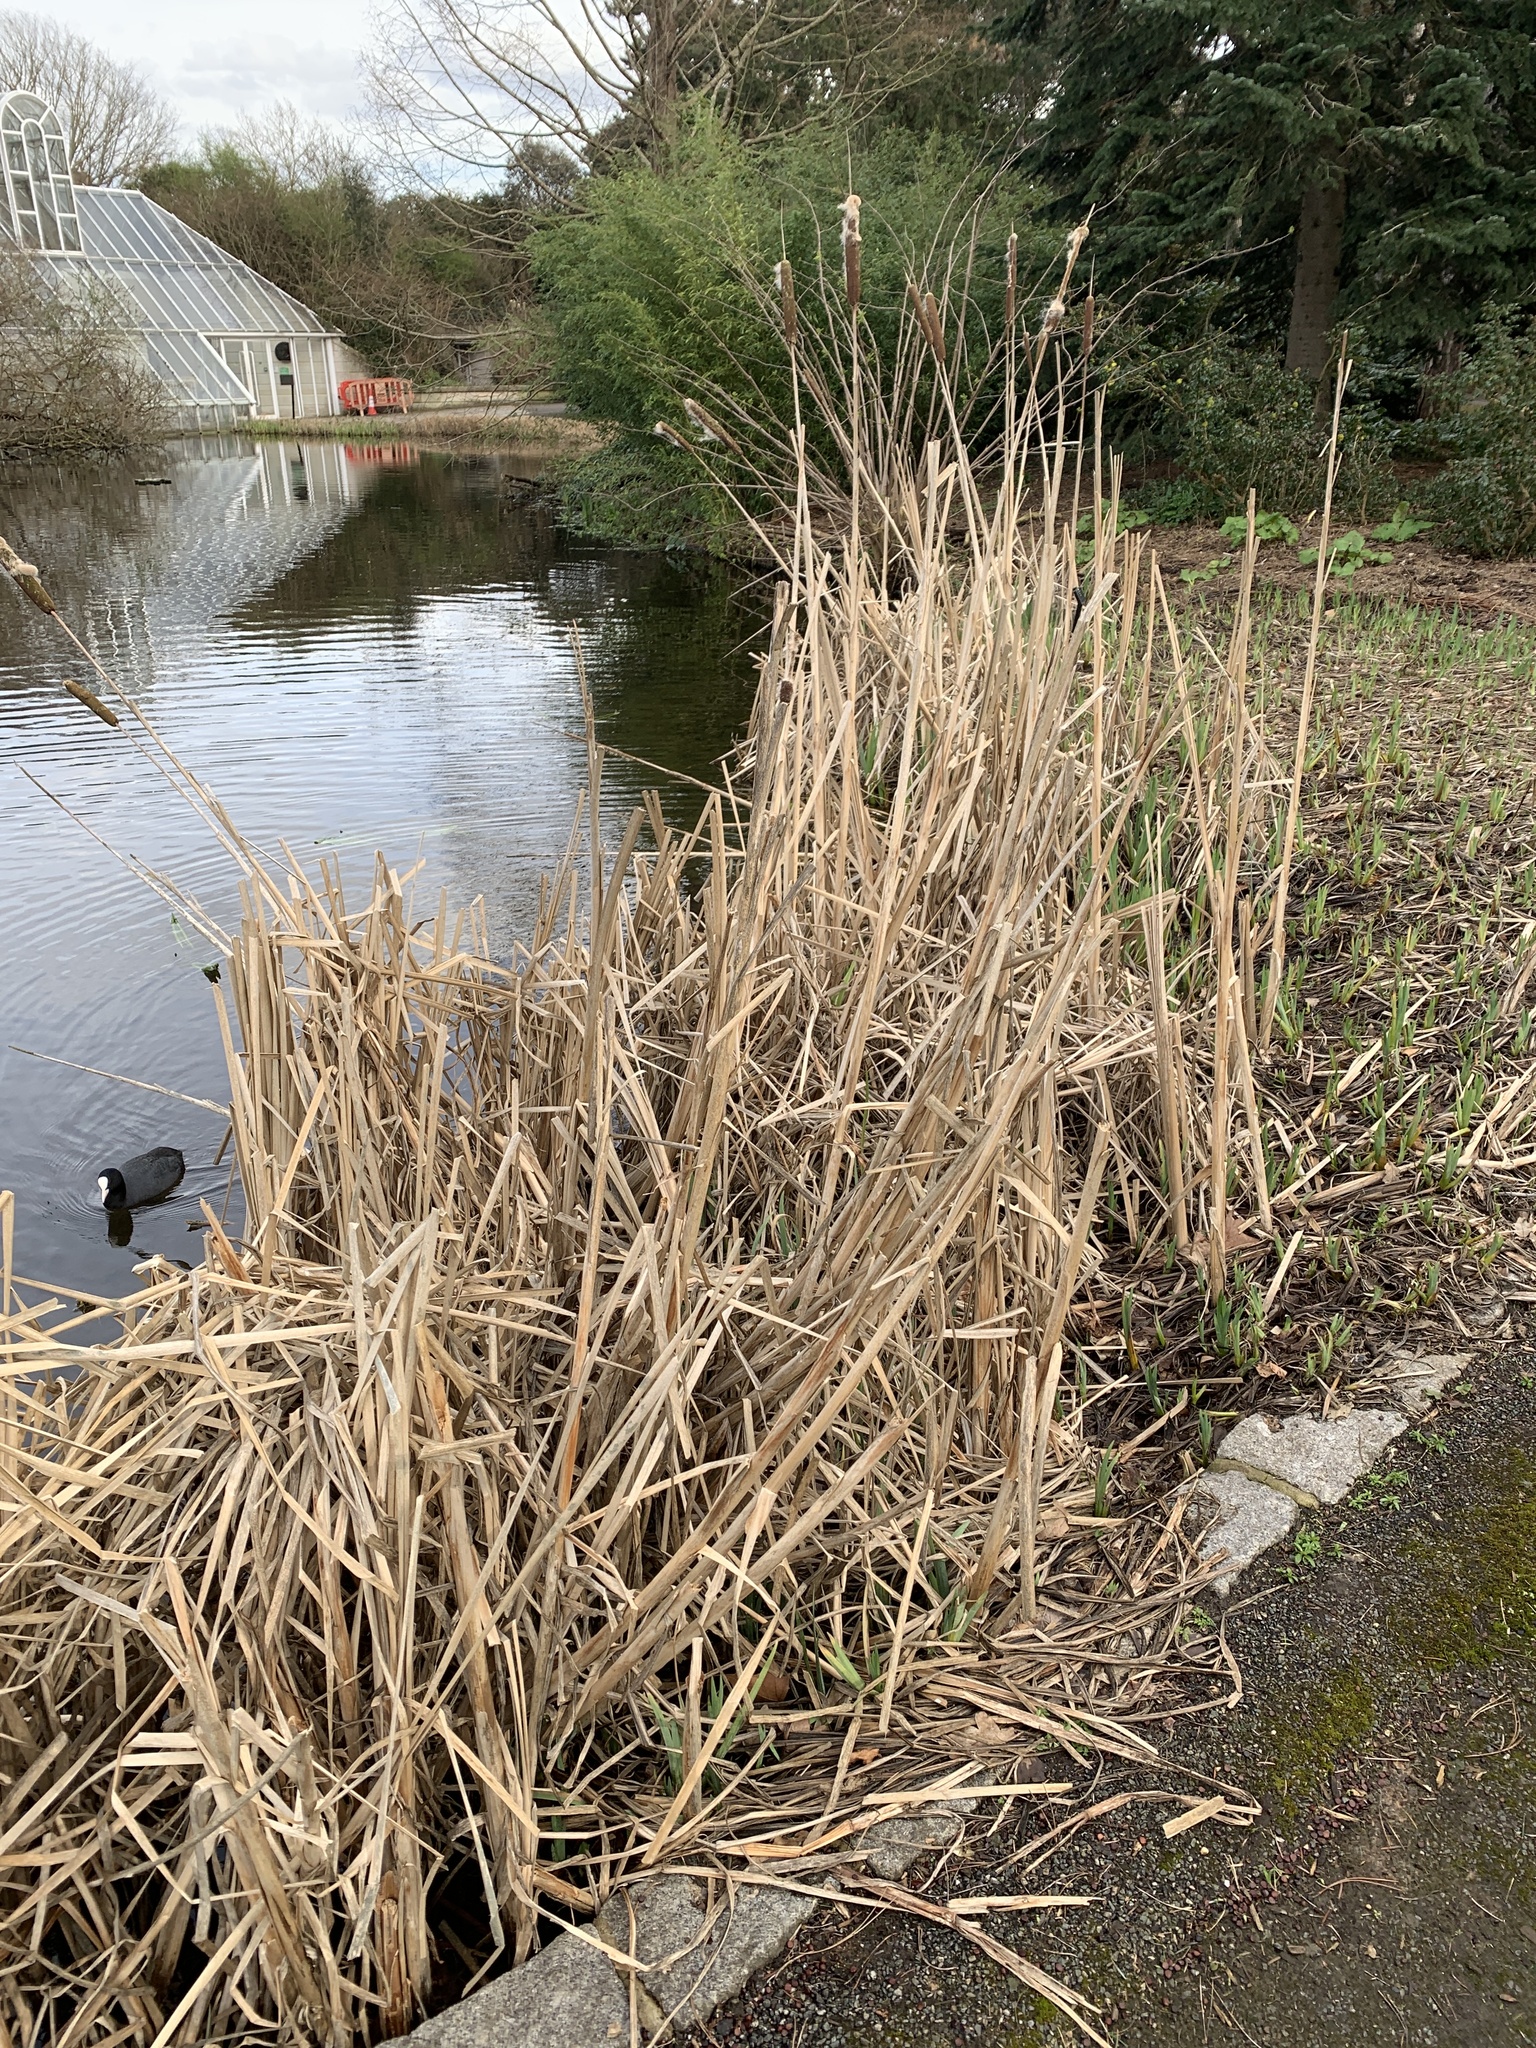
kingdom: Plantae
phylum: Tracheophyta
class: Liliopsida
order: Poales
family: Typhaceae
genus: Typha
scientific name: Typha latifolia
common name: Broadleaf cattail
